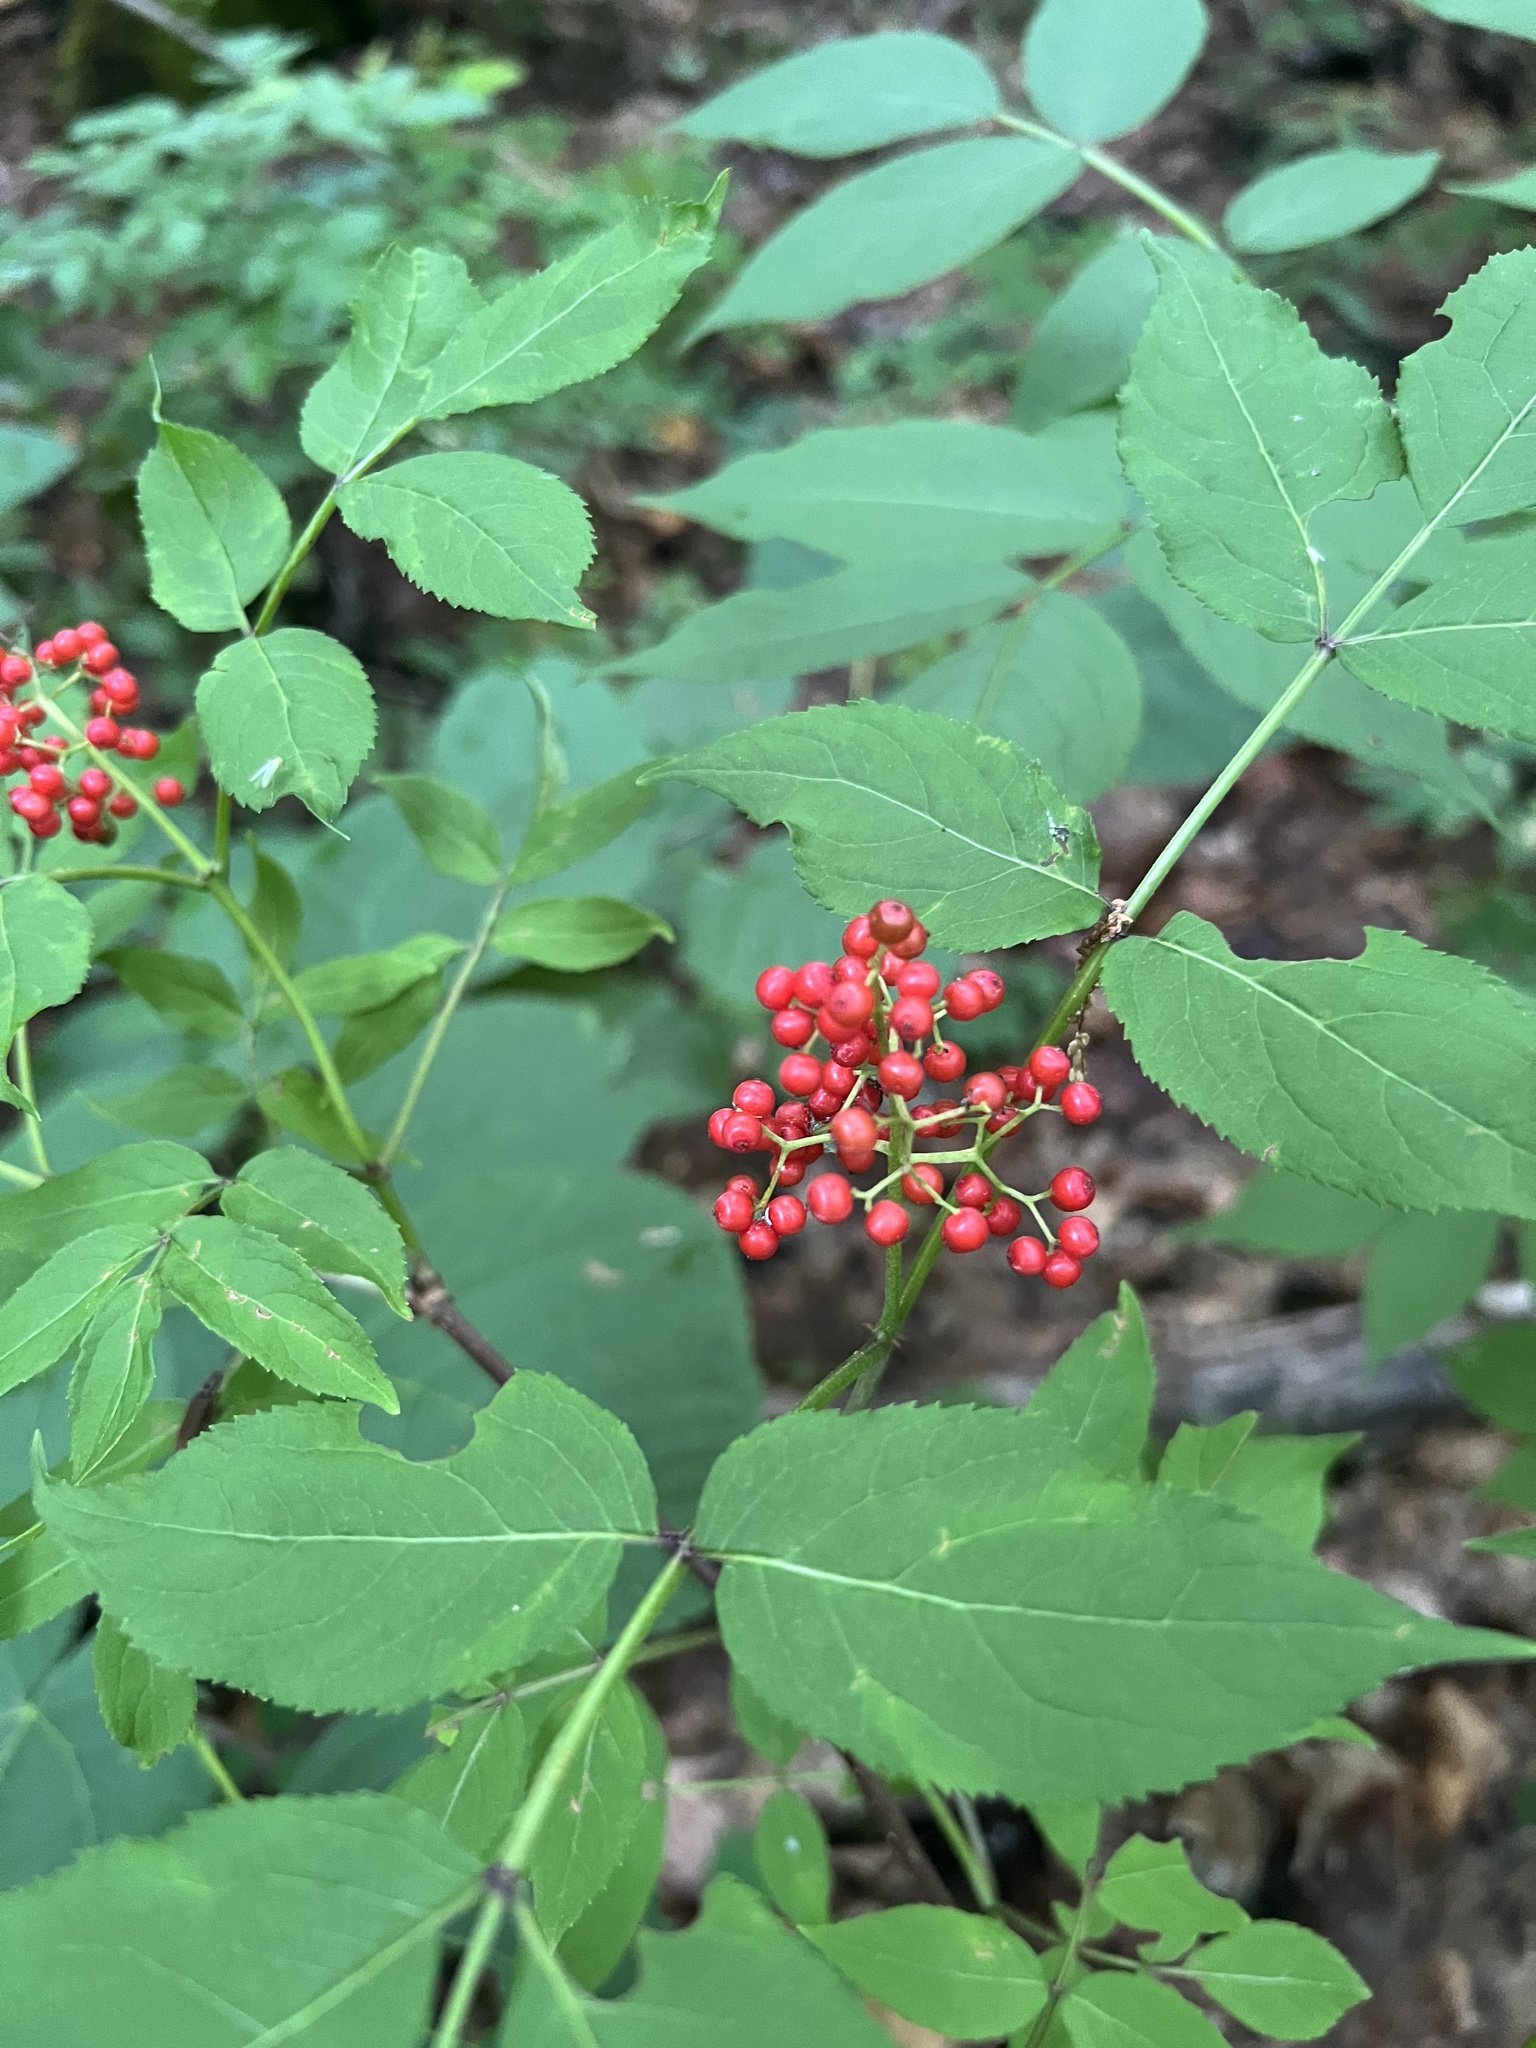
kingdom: Plantae
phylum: Tracheophyta
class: Magnoliopsida
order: Dipsacales
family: Viburnaceae
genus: Sambucus
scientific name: Sambucus racemosa
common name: Red-berried elder
